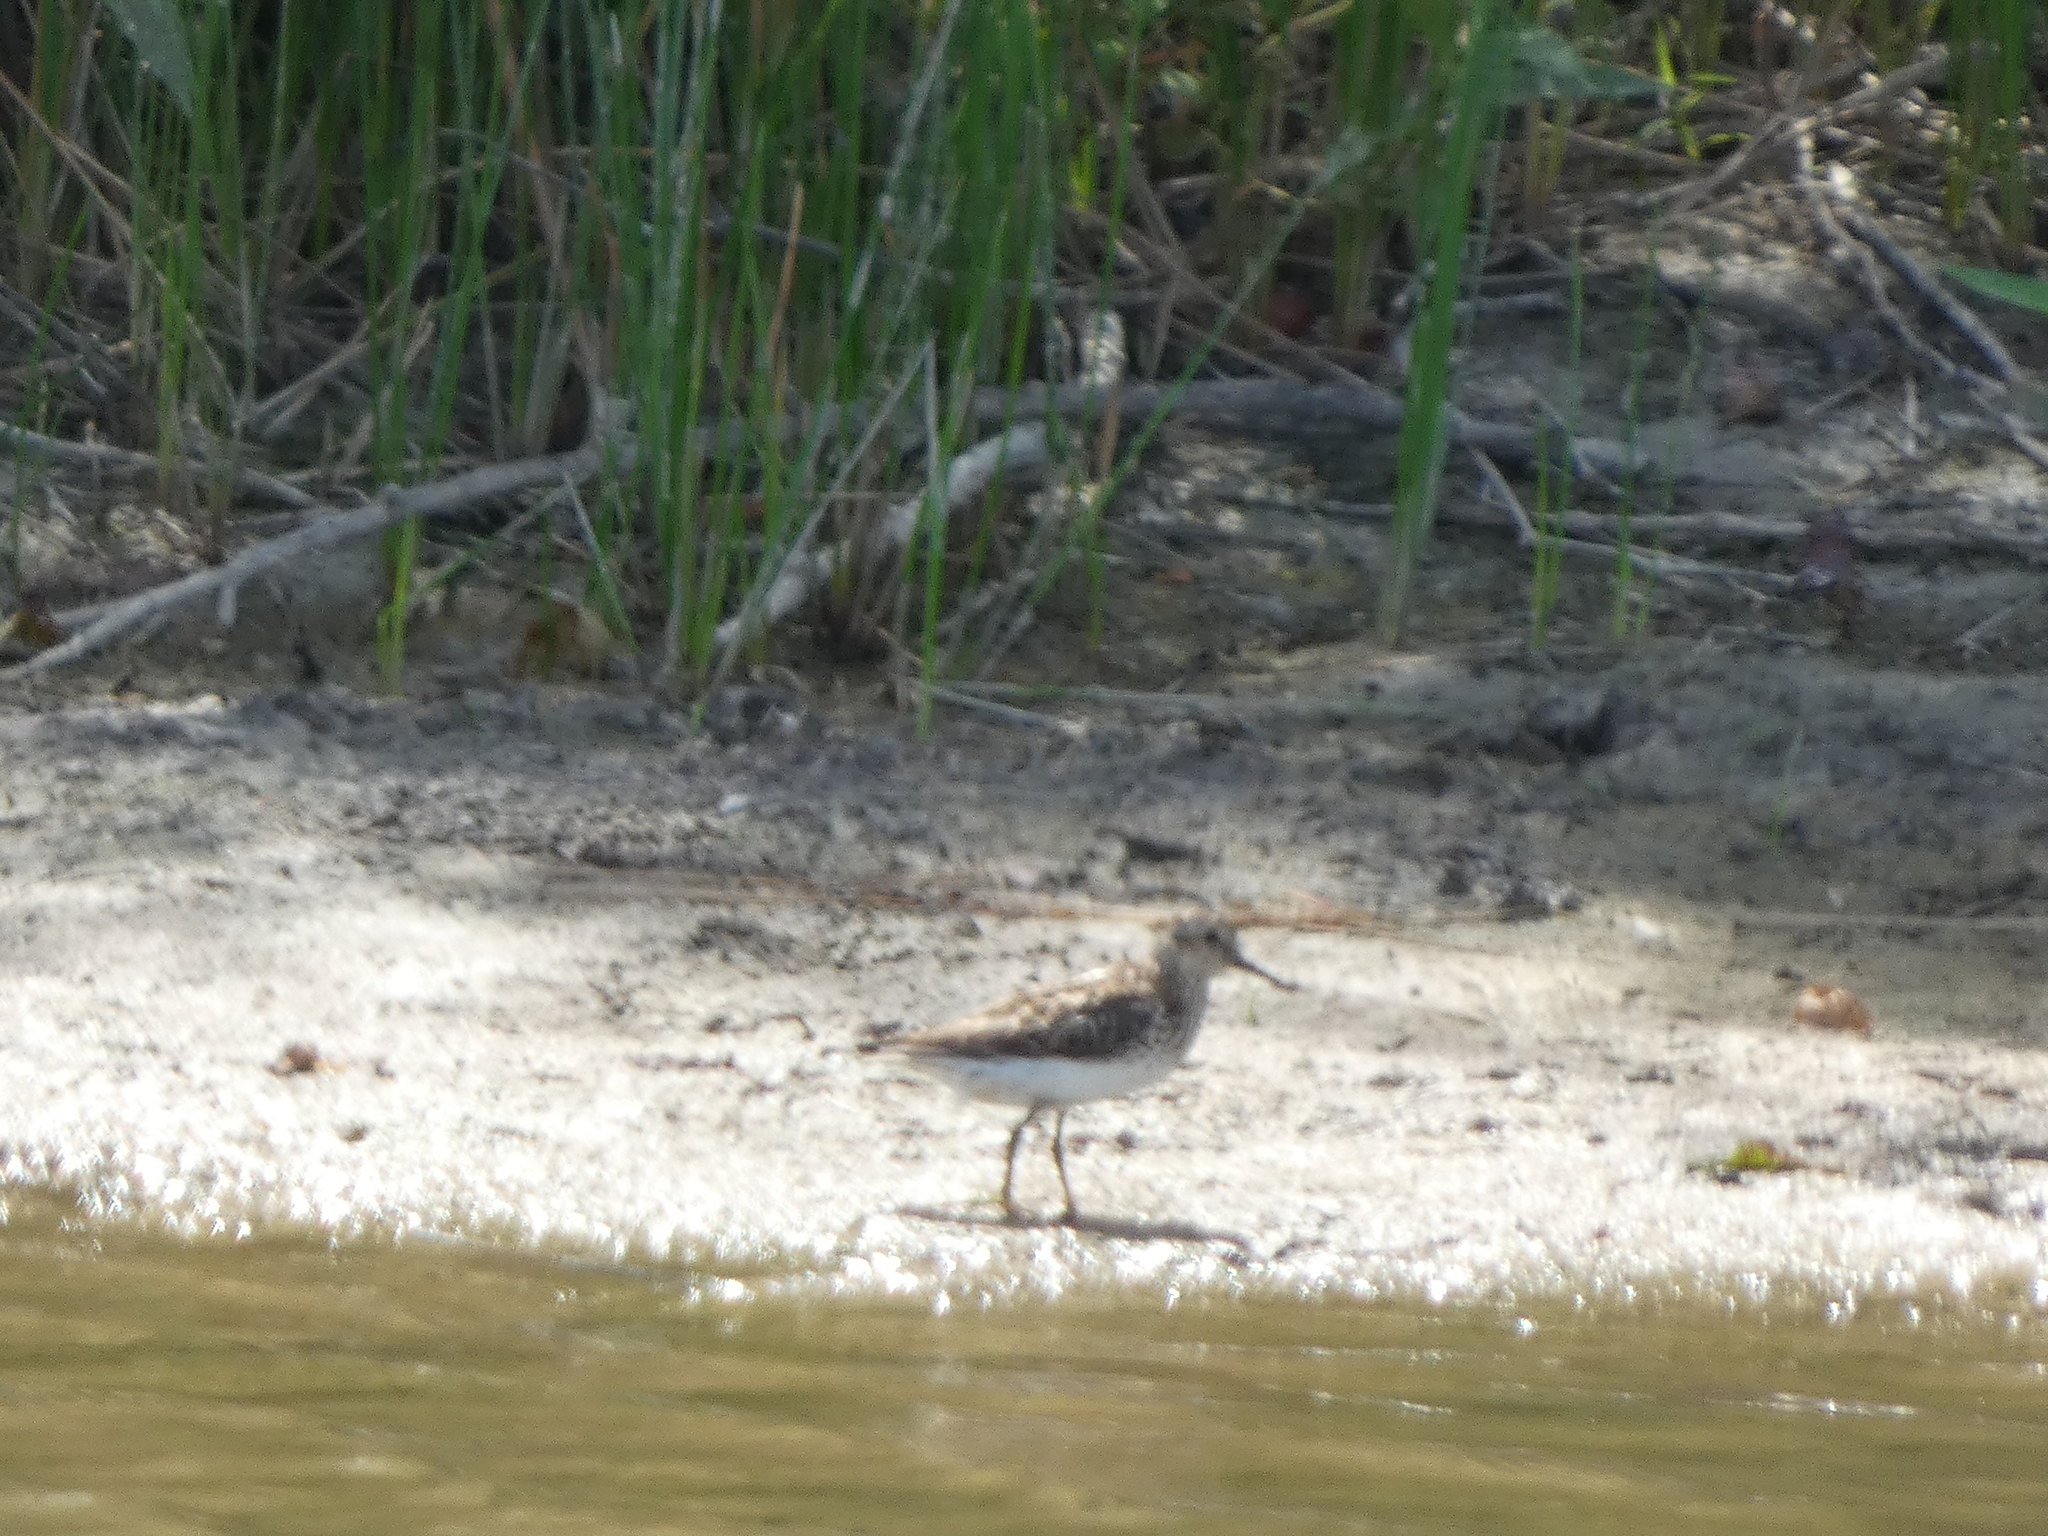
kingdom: Animalia
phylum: Chordata
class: Aves
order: Charadriiformes
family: Scolopacidae
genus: Calidris
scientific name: Calidris minutilla
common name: Least sandpiper
